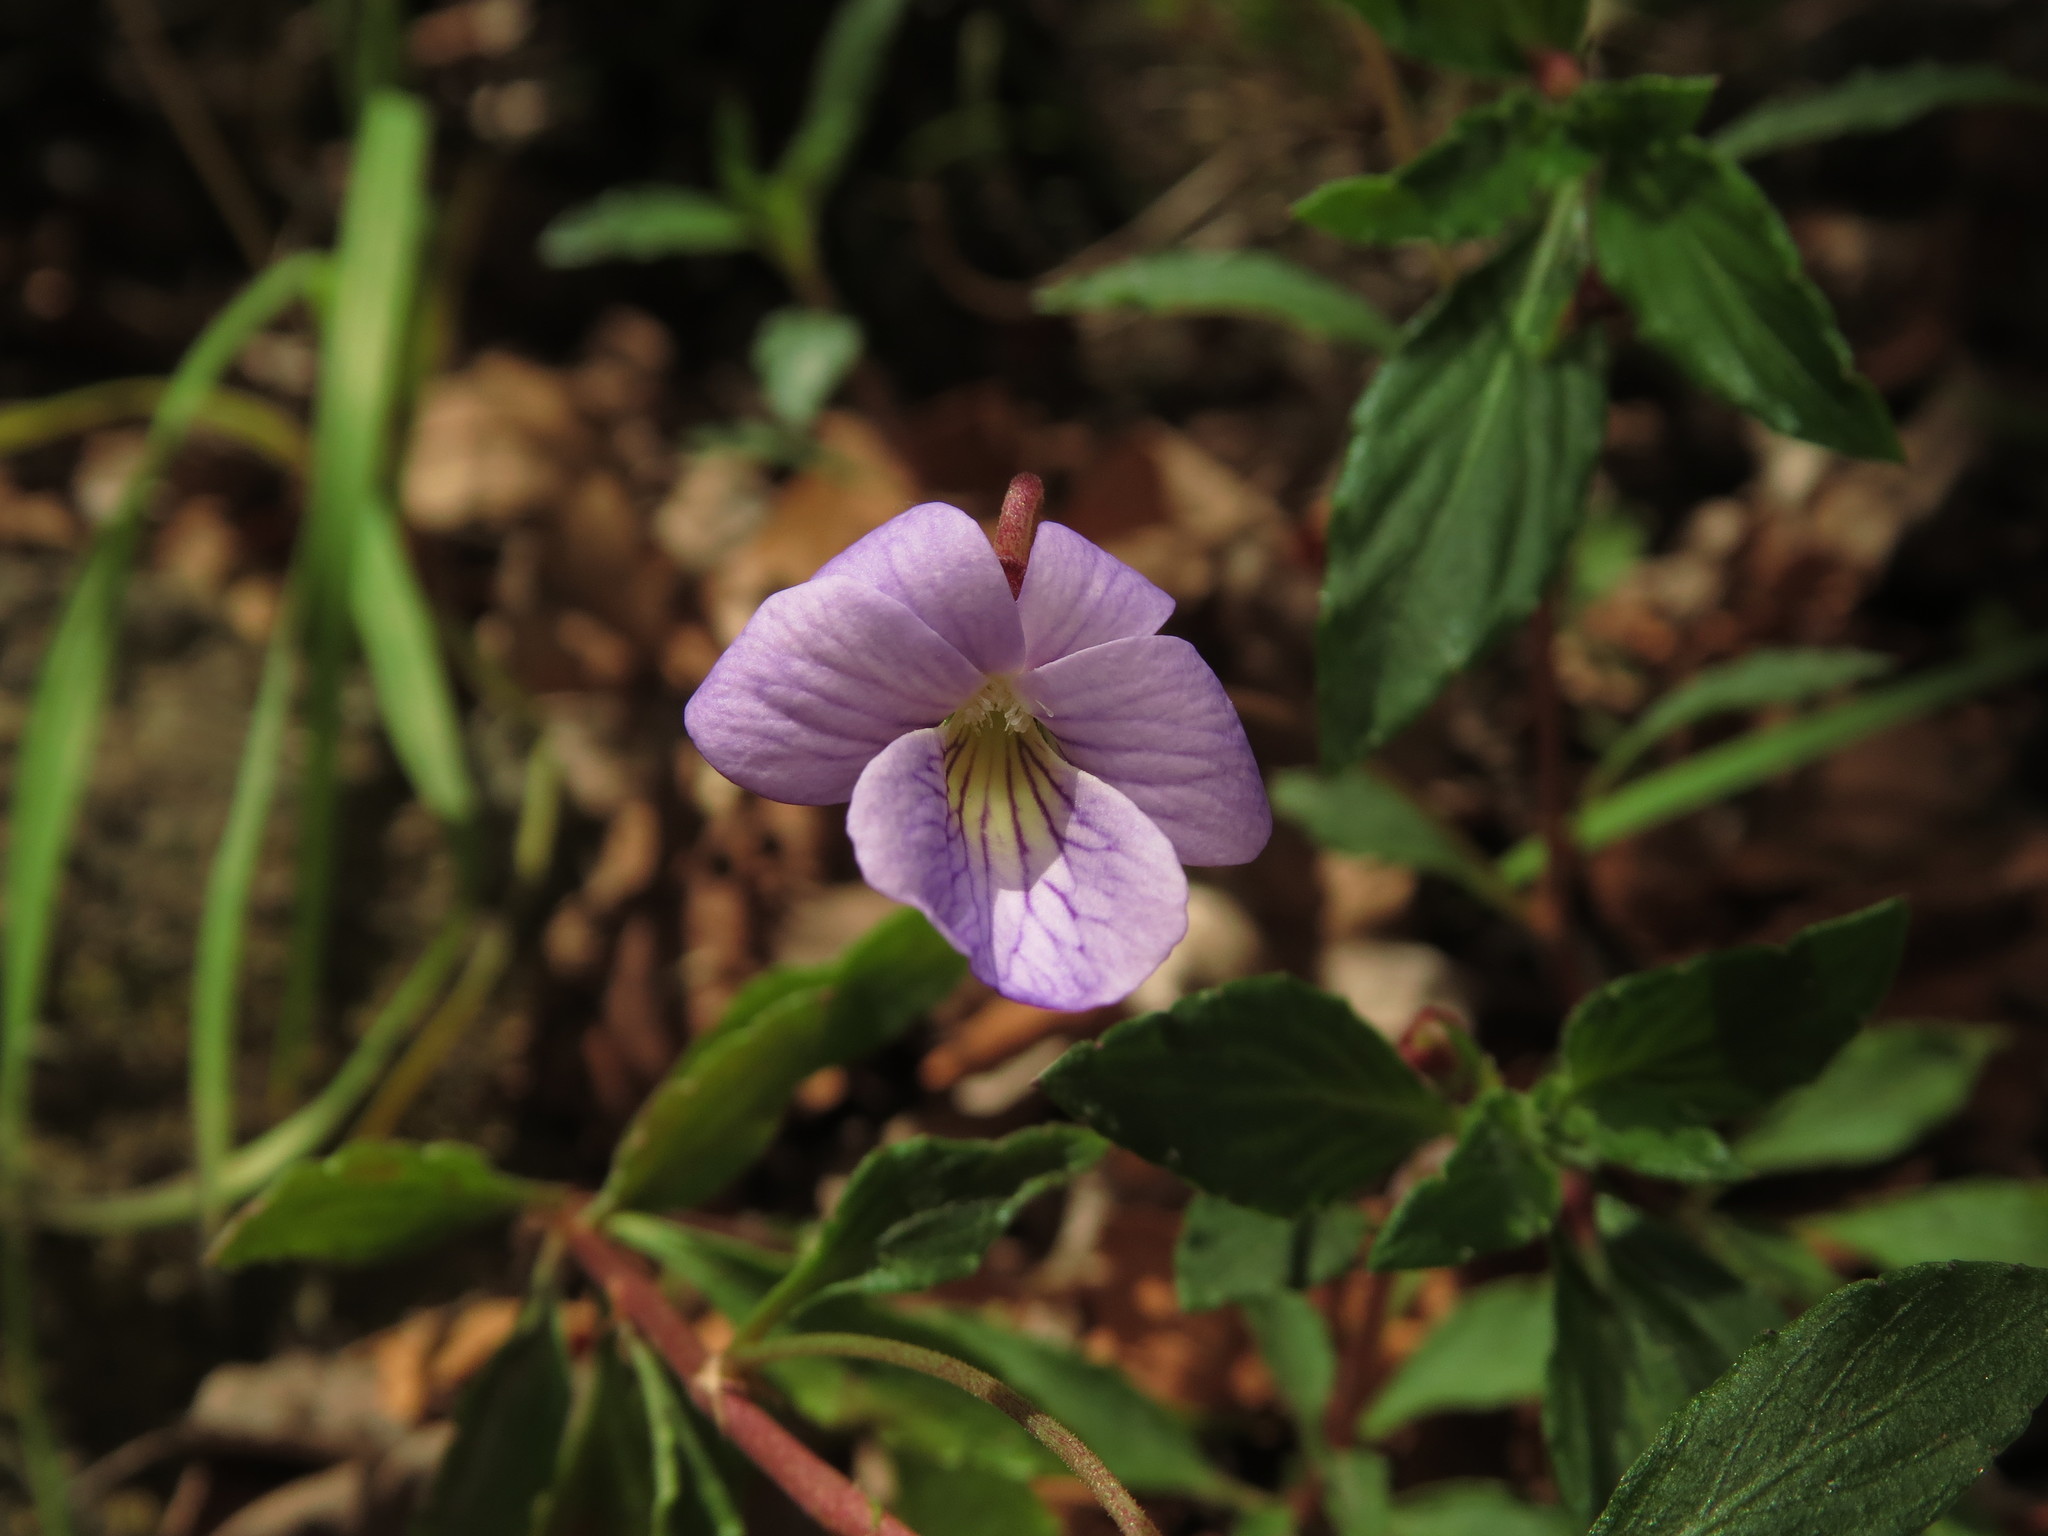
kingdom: Plantae
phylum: Tracheophyta
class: Magnoliopsida
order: Malpighiales
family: Violaceae
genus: Viola
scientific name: Viola portalesia
